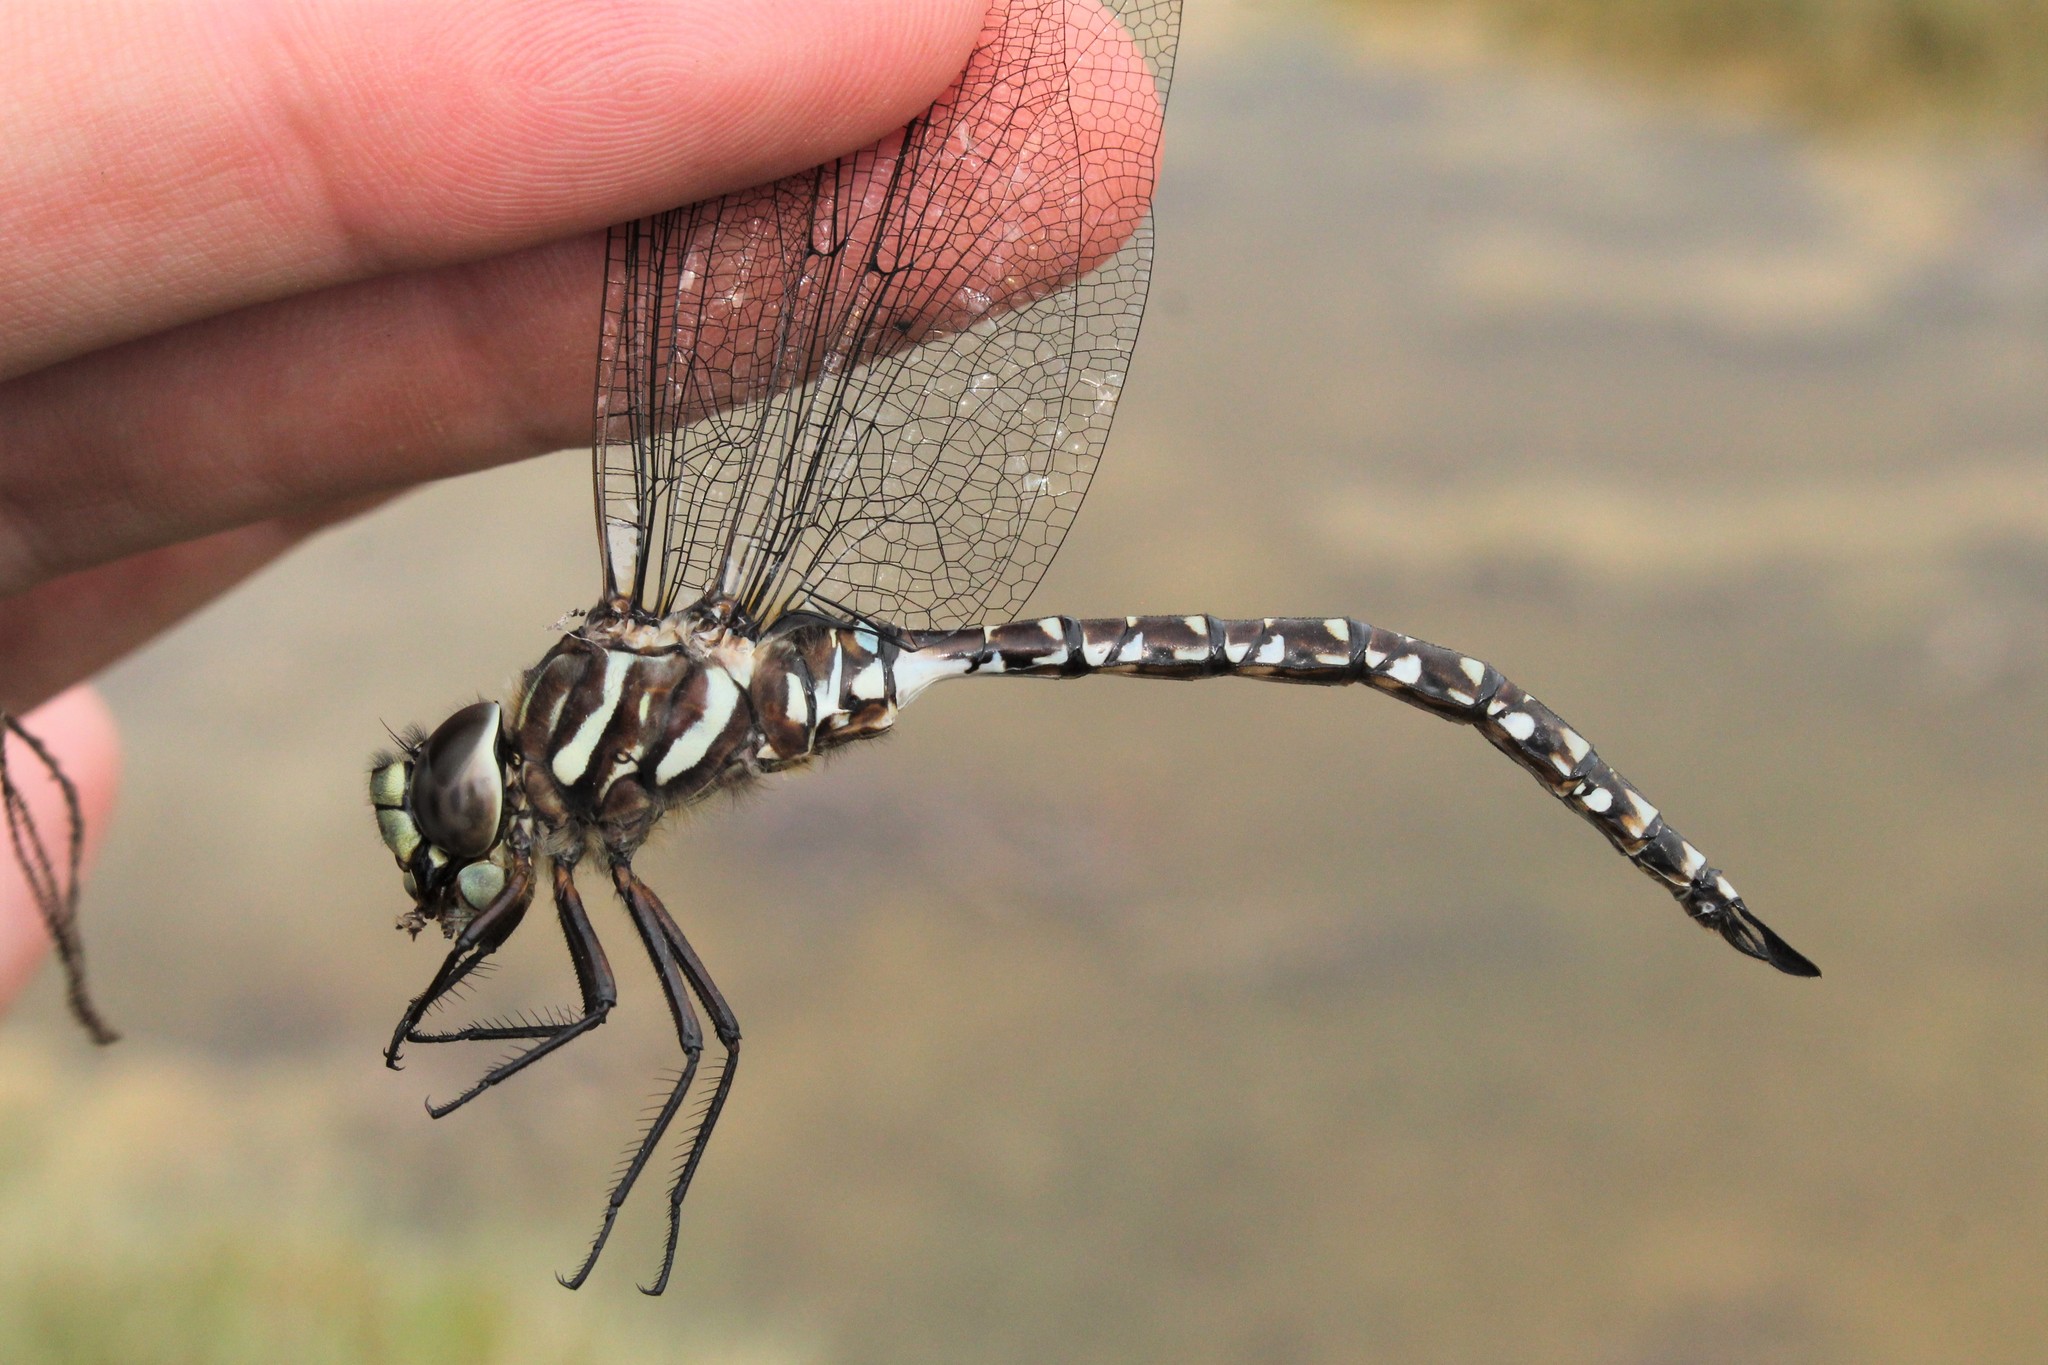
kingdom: Animalia
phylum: Arthropoda
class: Insecta
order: Odonata
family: Aeshnidae
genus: Aeshna
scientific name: Aeshna subarctica
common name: Subarctic darner
